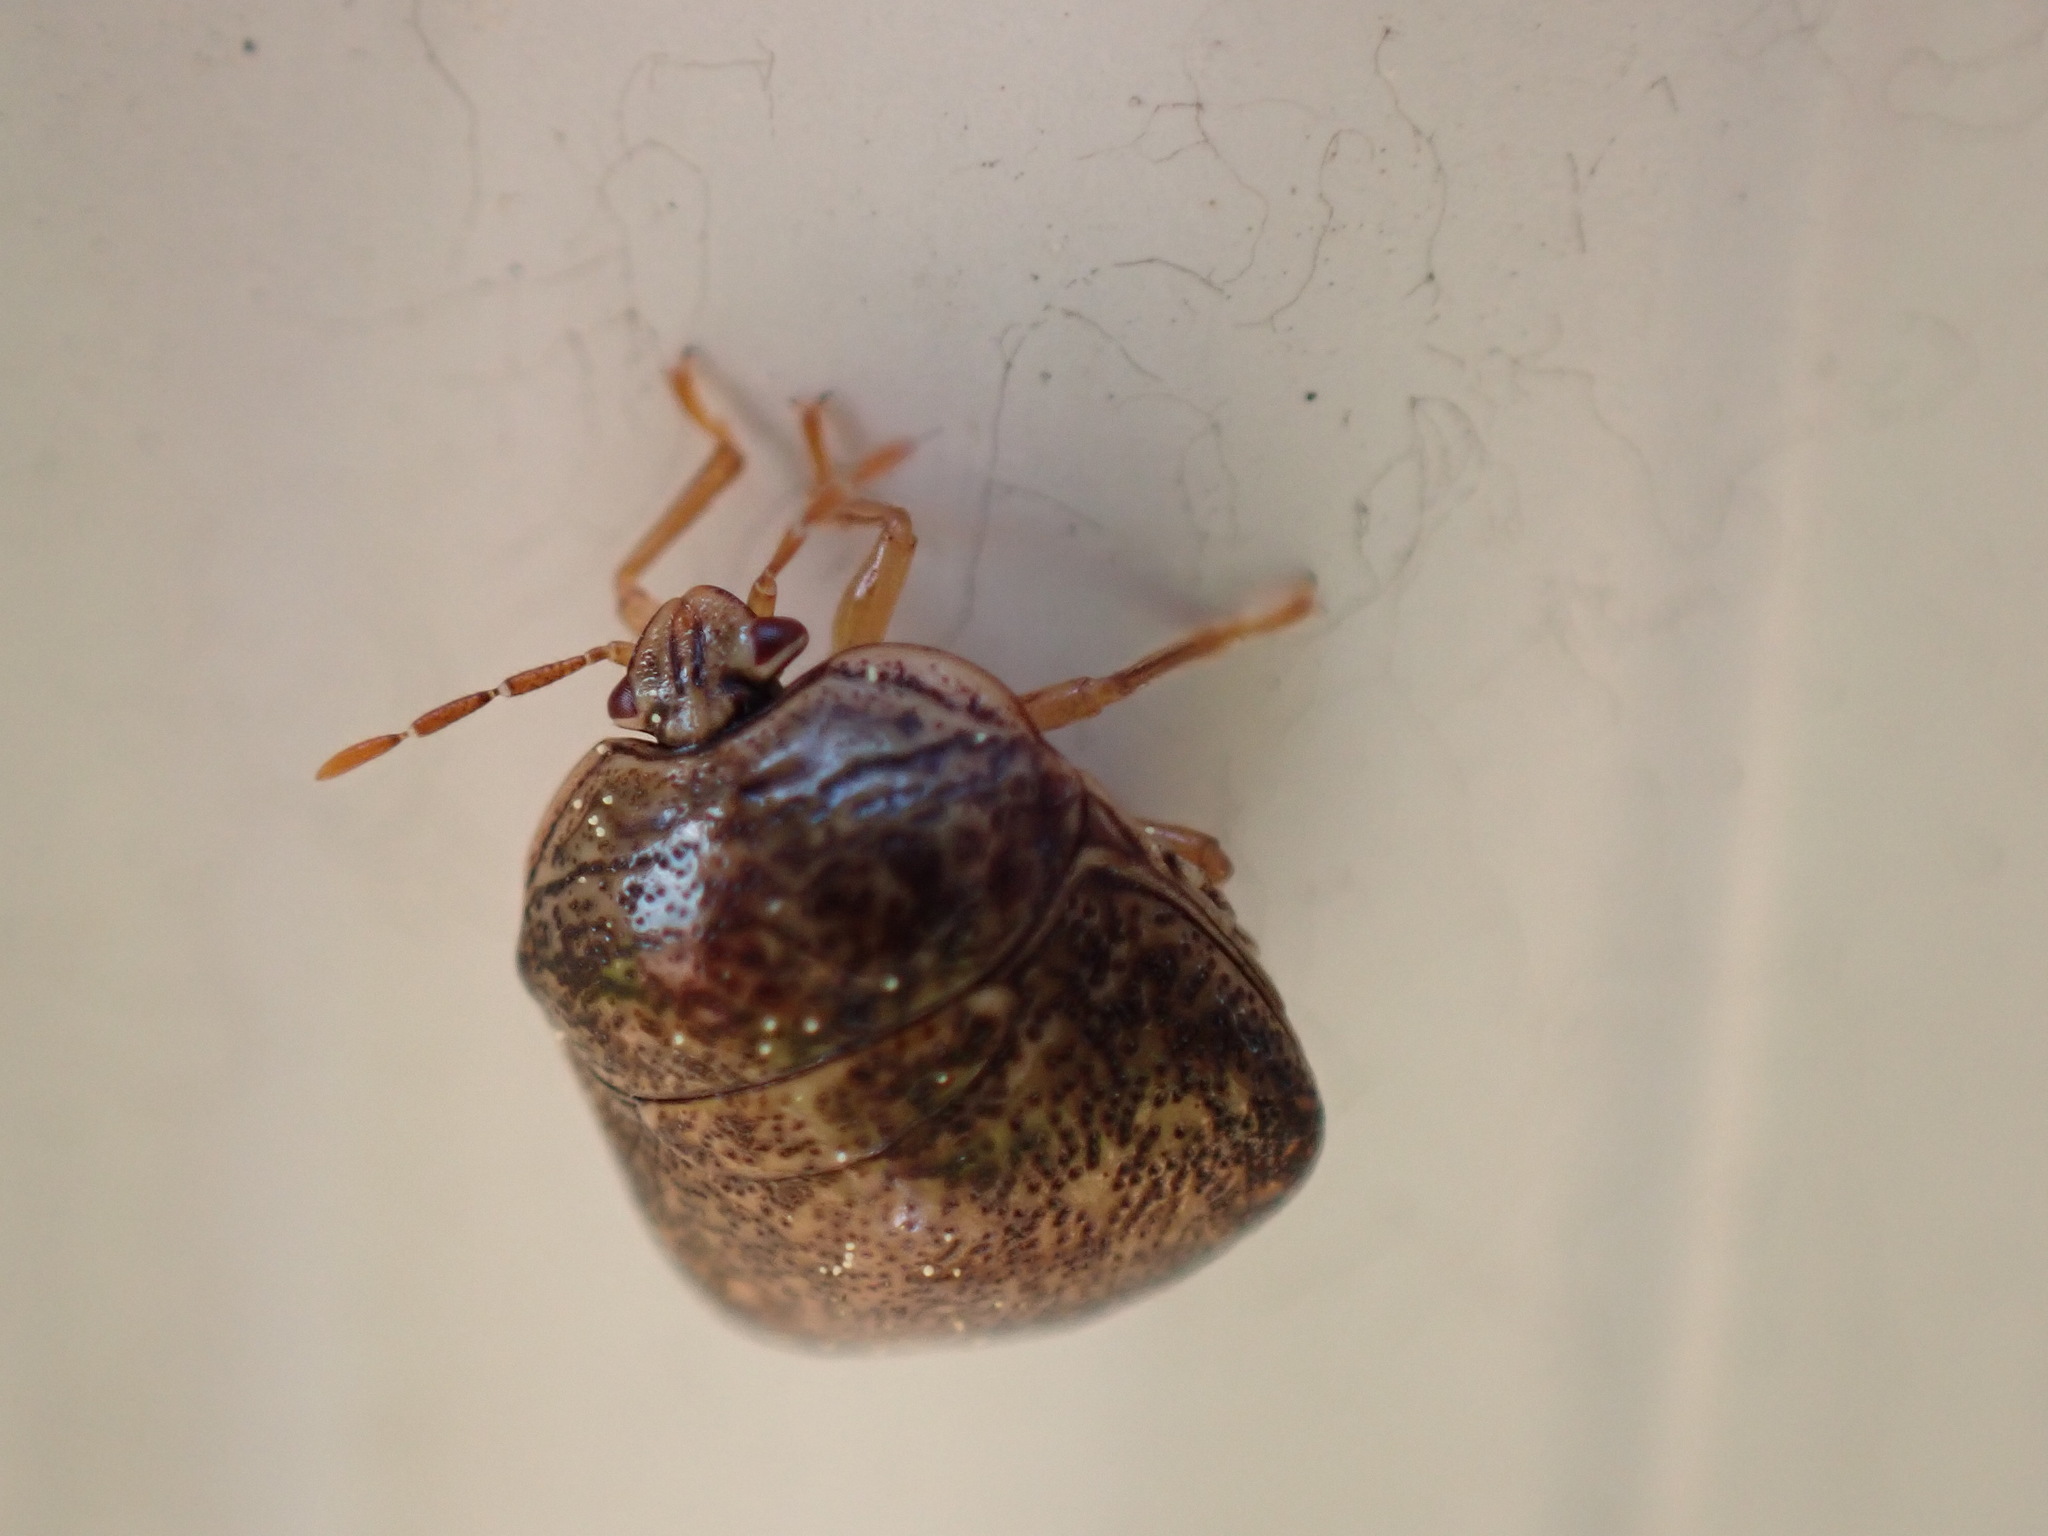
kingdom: Animalia
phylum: Arthropoda
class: Insecta
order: Hemiptera
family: Plataspidae
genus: Megacopta
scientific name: Megacopta cribraria
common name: Bean plataspid
